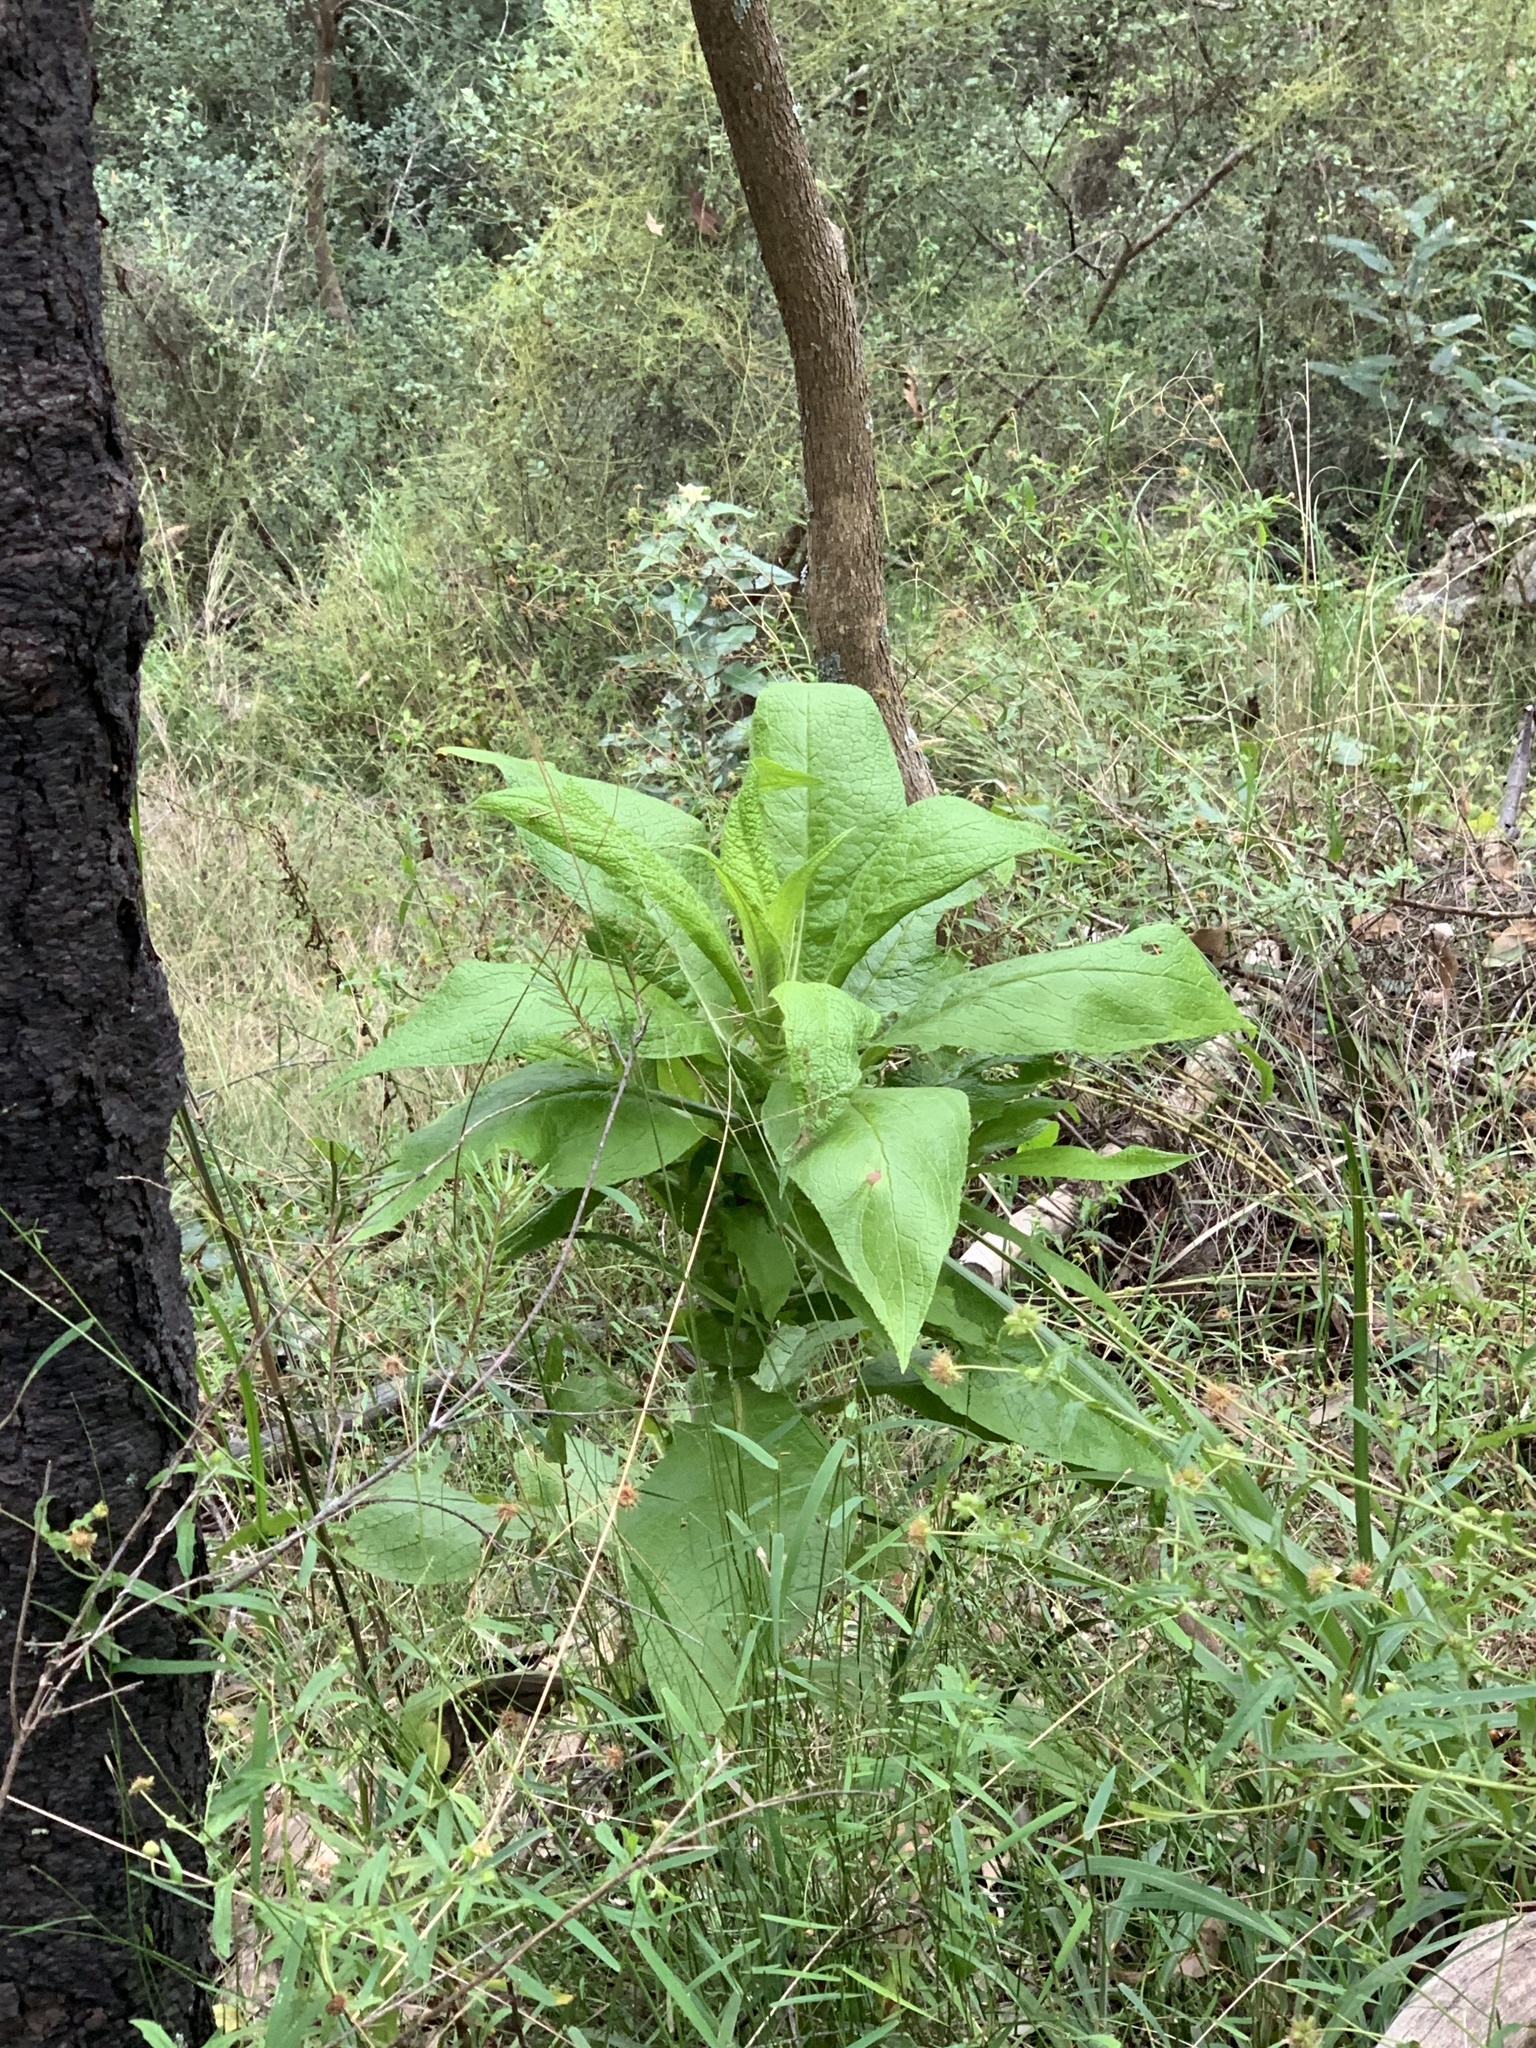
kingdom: Plantae
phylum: Tracheophyta
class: Magnoliopsida
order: Asterales
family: Asteraceae
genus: Calomeria
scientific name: Calomeria amaranthoides
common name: Incenseplant
